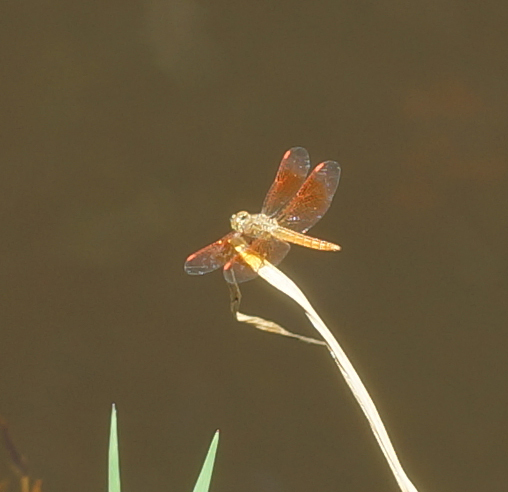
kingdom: Animalia
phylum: Arthropoda
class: Insecta
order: Odonata
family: Libellulidae
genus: Brachythemis
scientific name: Brachythemis contaminata
